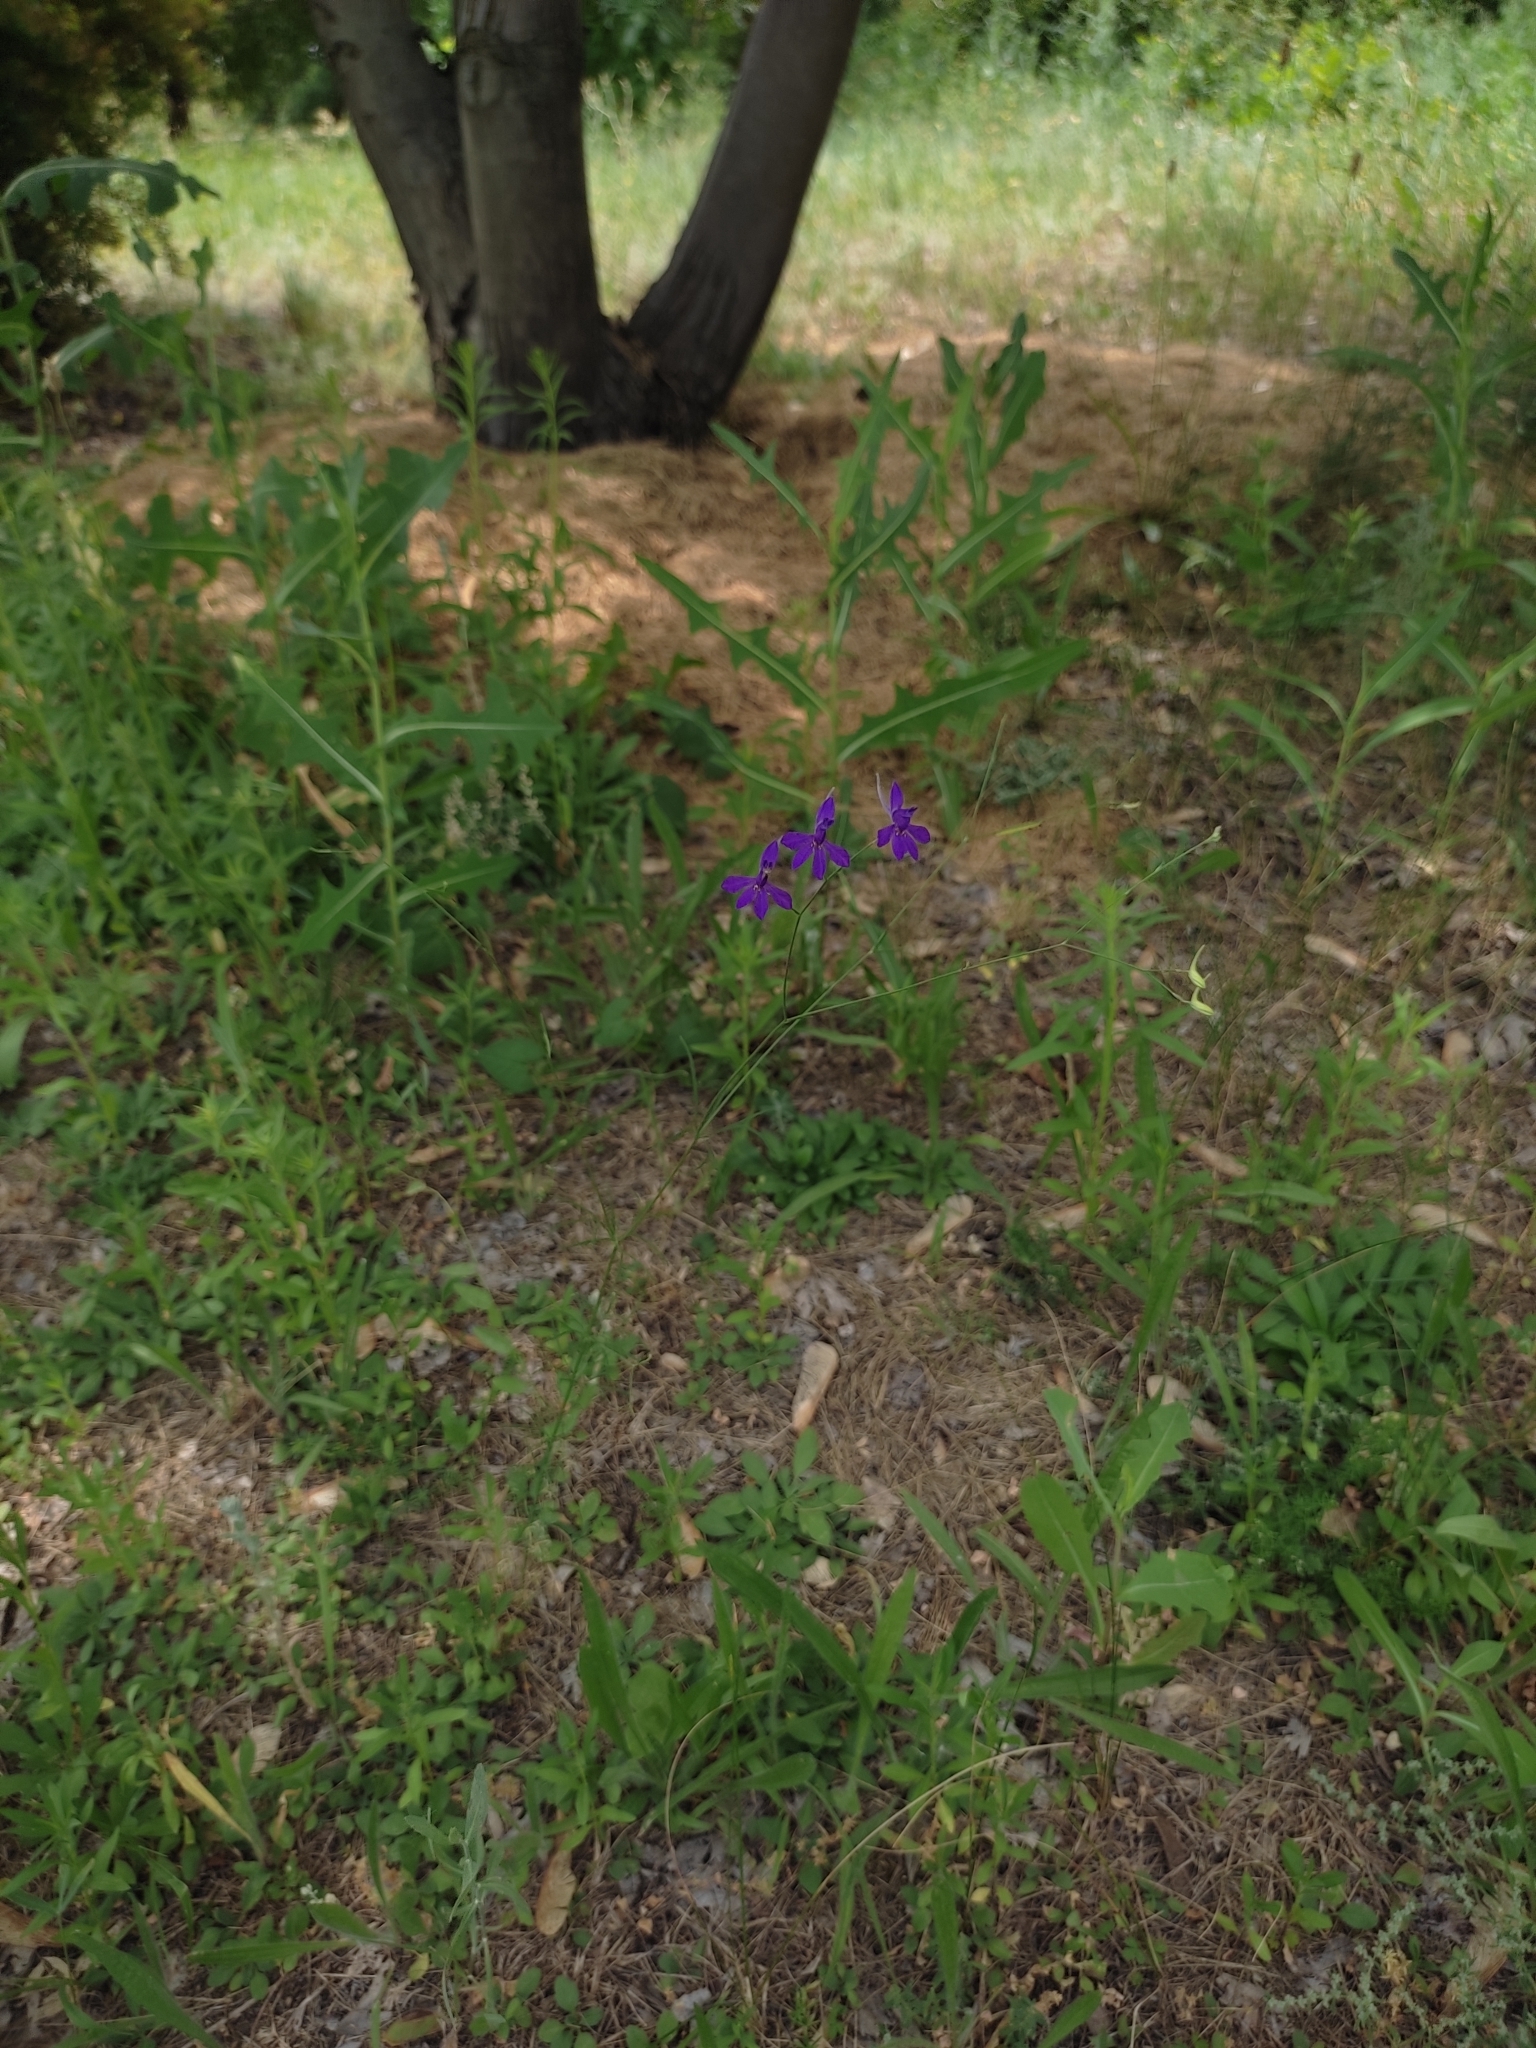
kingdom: Plantae
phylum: Tracheophyta
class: Magnoliopsida
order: Ranunculales
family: Ranunculaceae
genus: Delphinium
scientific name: Delphinium consolida
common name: Branching larkspur
